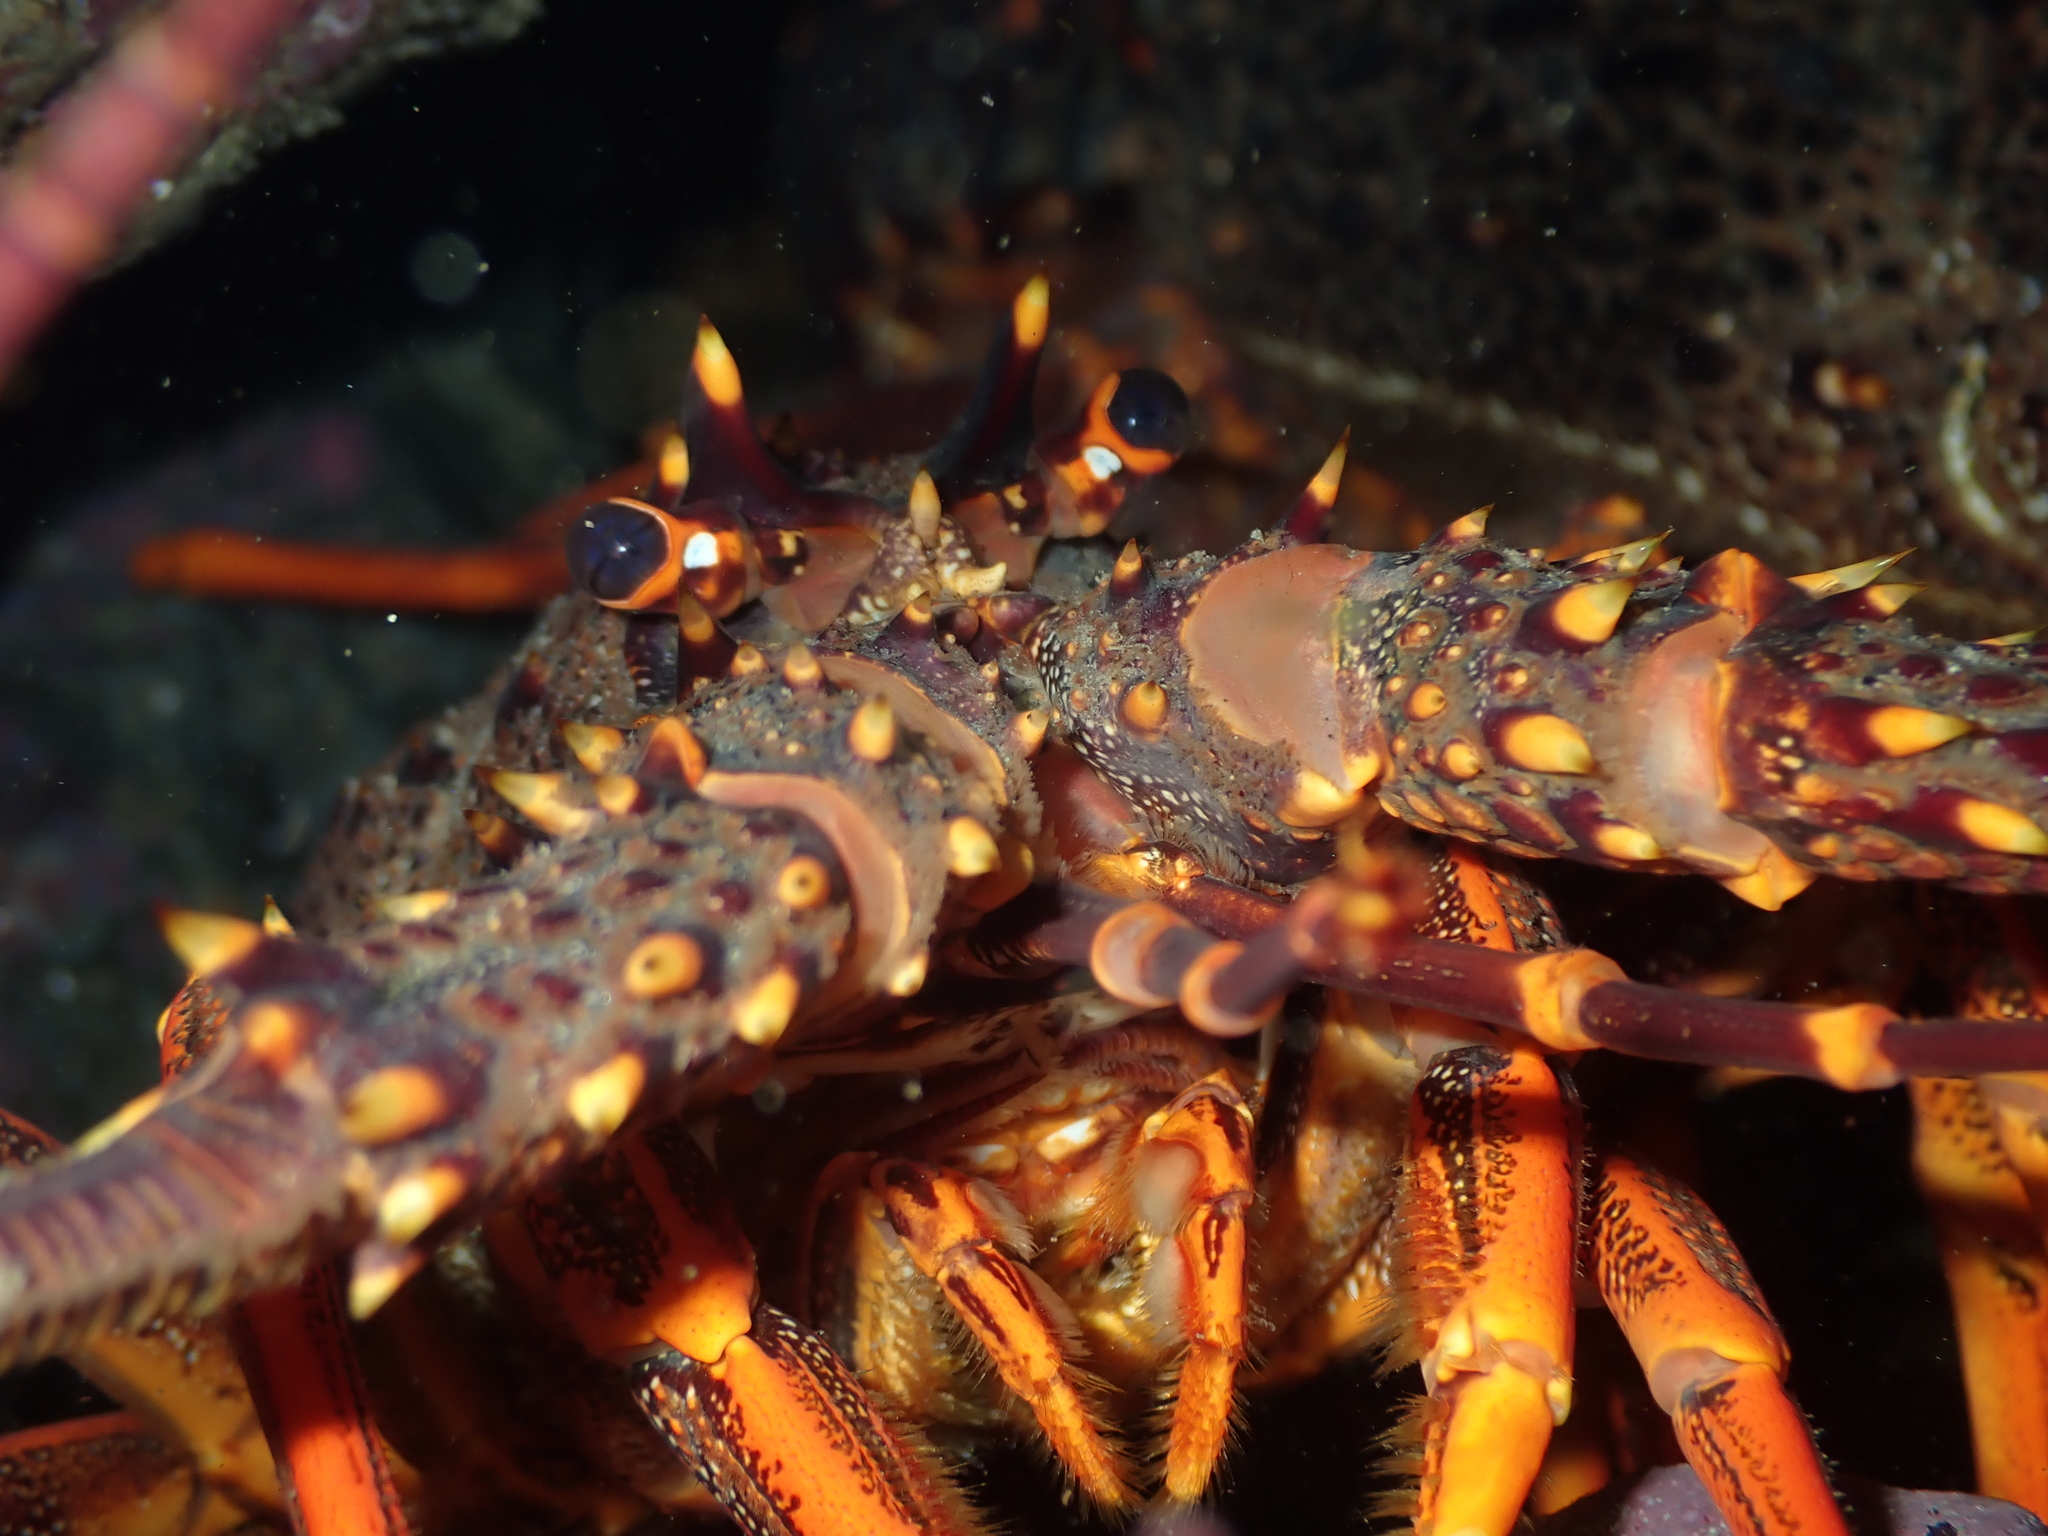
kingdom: Animalia
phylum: Arthropoda
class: Malacostraca
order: Decapoda
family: Palinuridae
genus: Jasus
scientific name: Jasus edwardsii
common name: Red rock lobster
